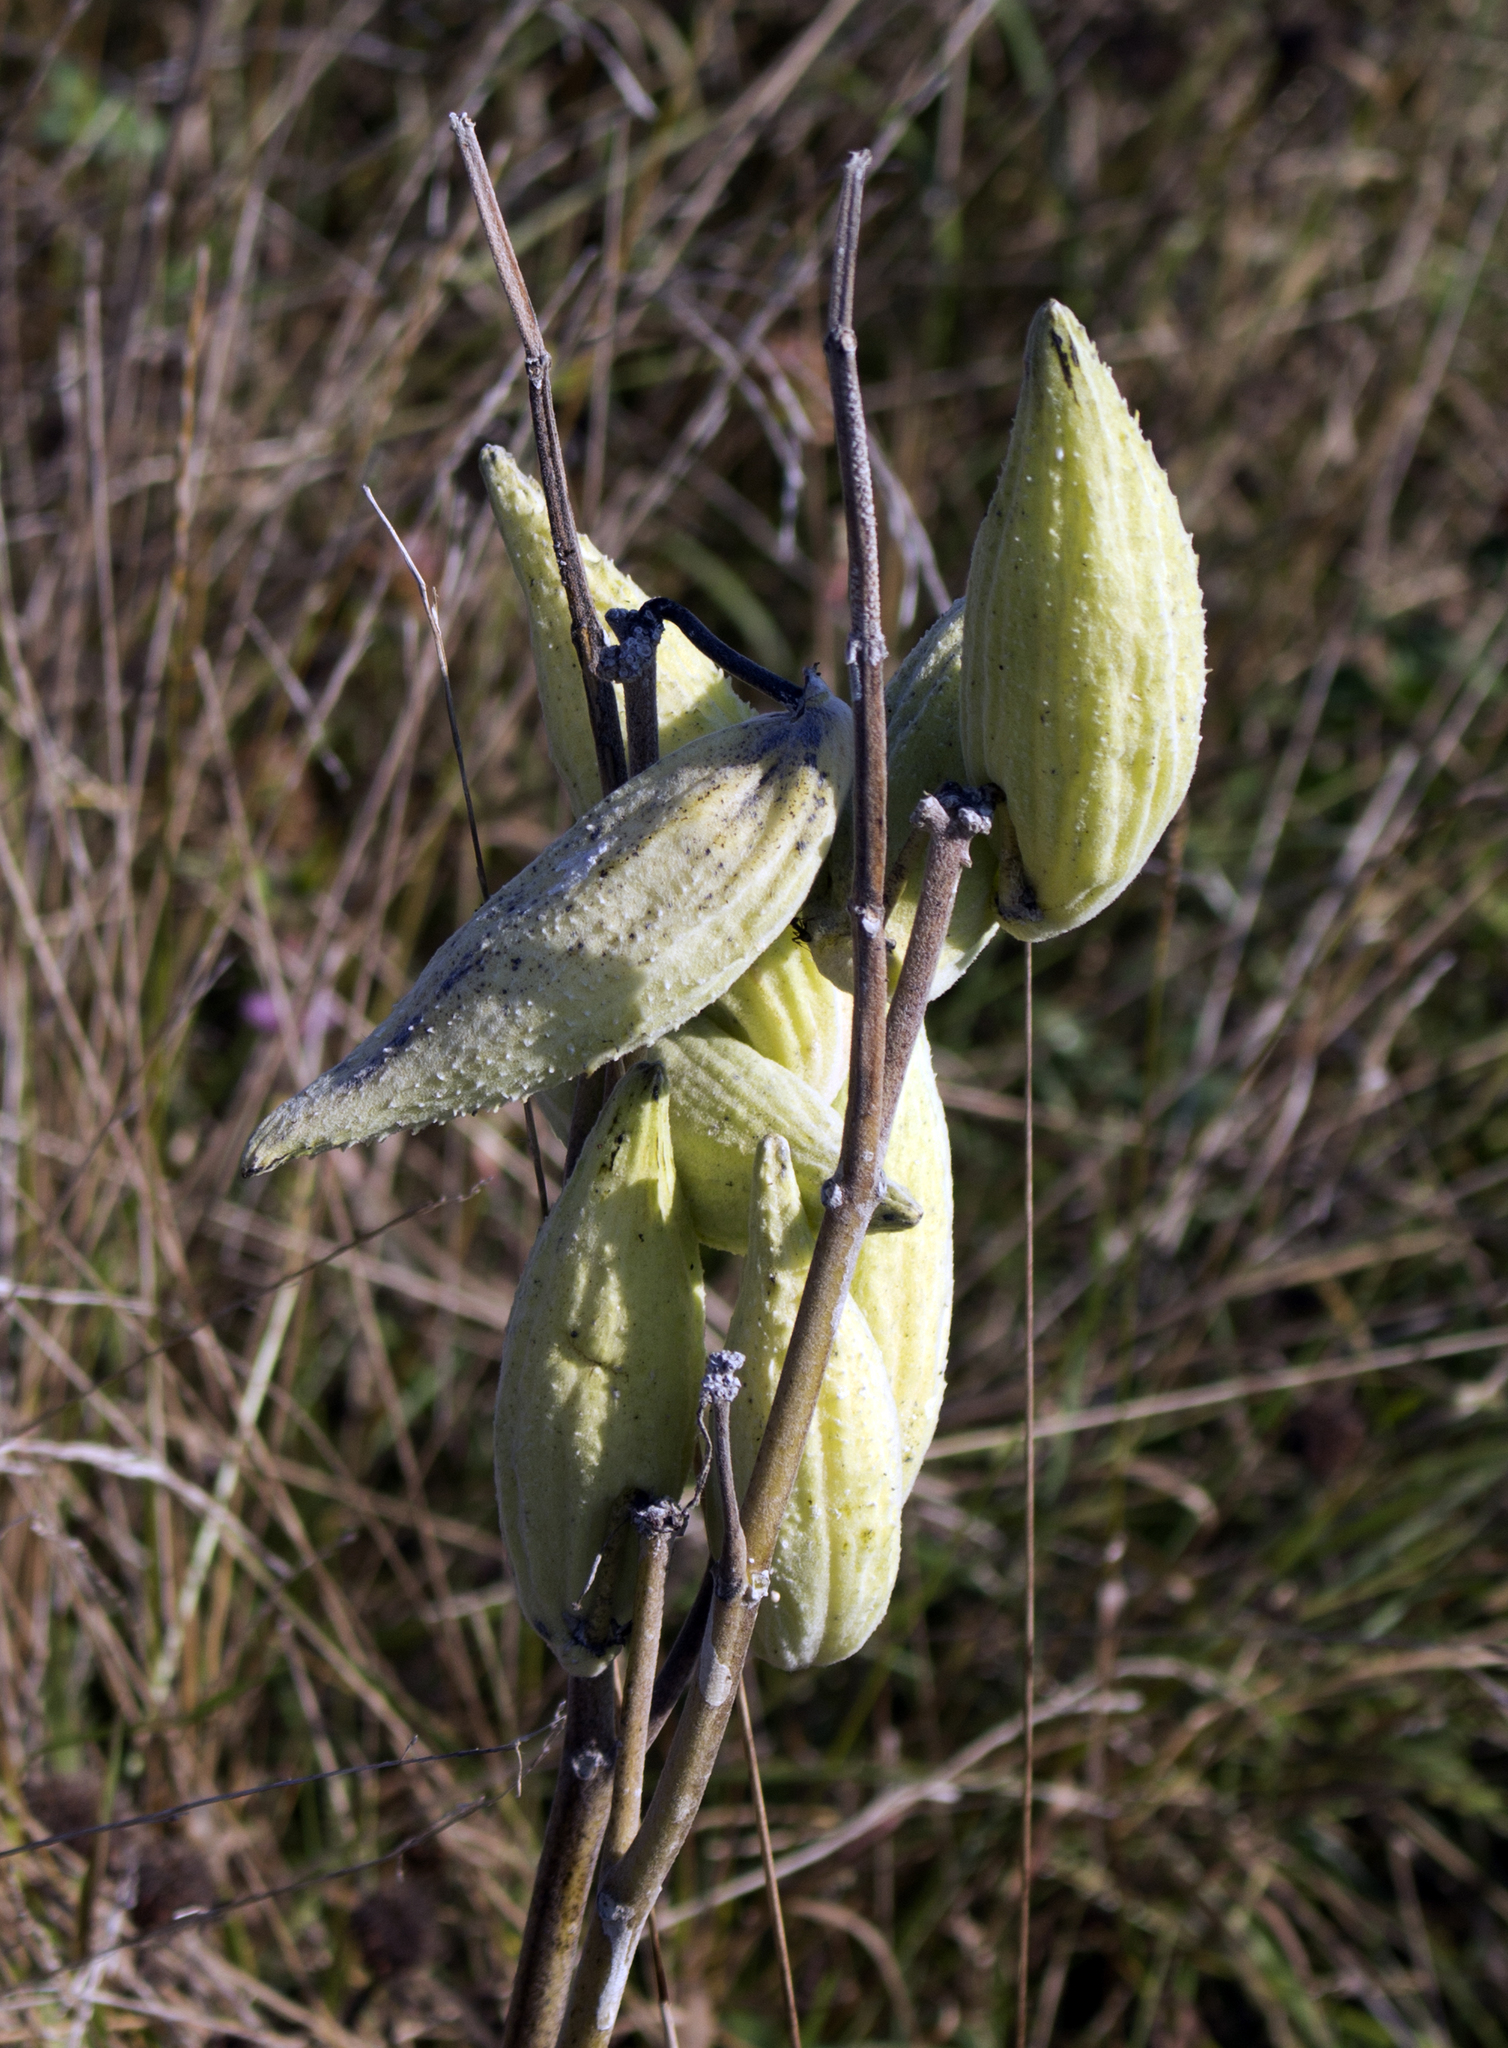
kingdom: Plantae
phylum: Tracheophyta
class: Magnoliopsida
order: Gentianales
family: Apocynaceae
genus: Asclepias
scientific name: Asclepias syriaca
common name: Common milkweed
